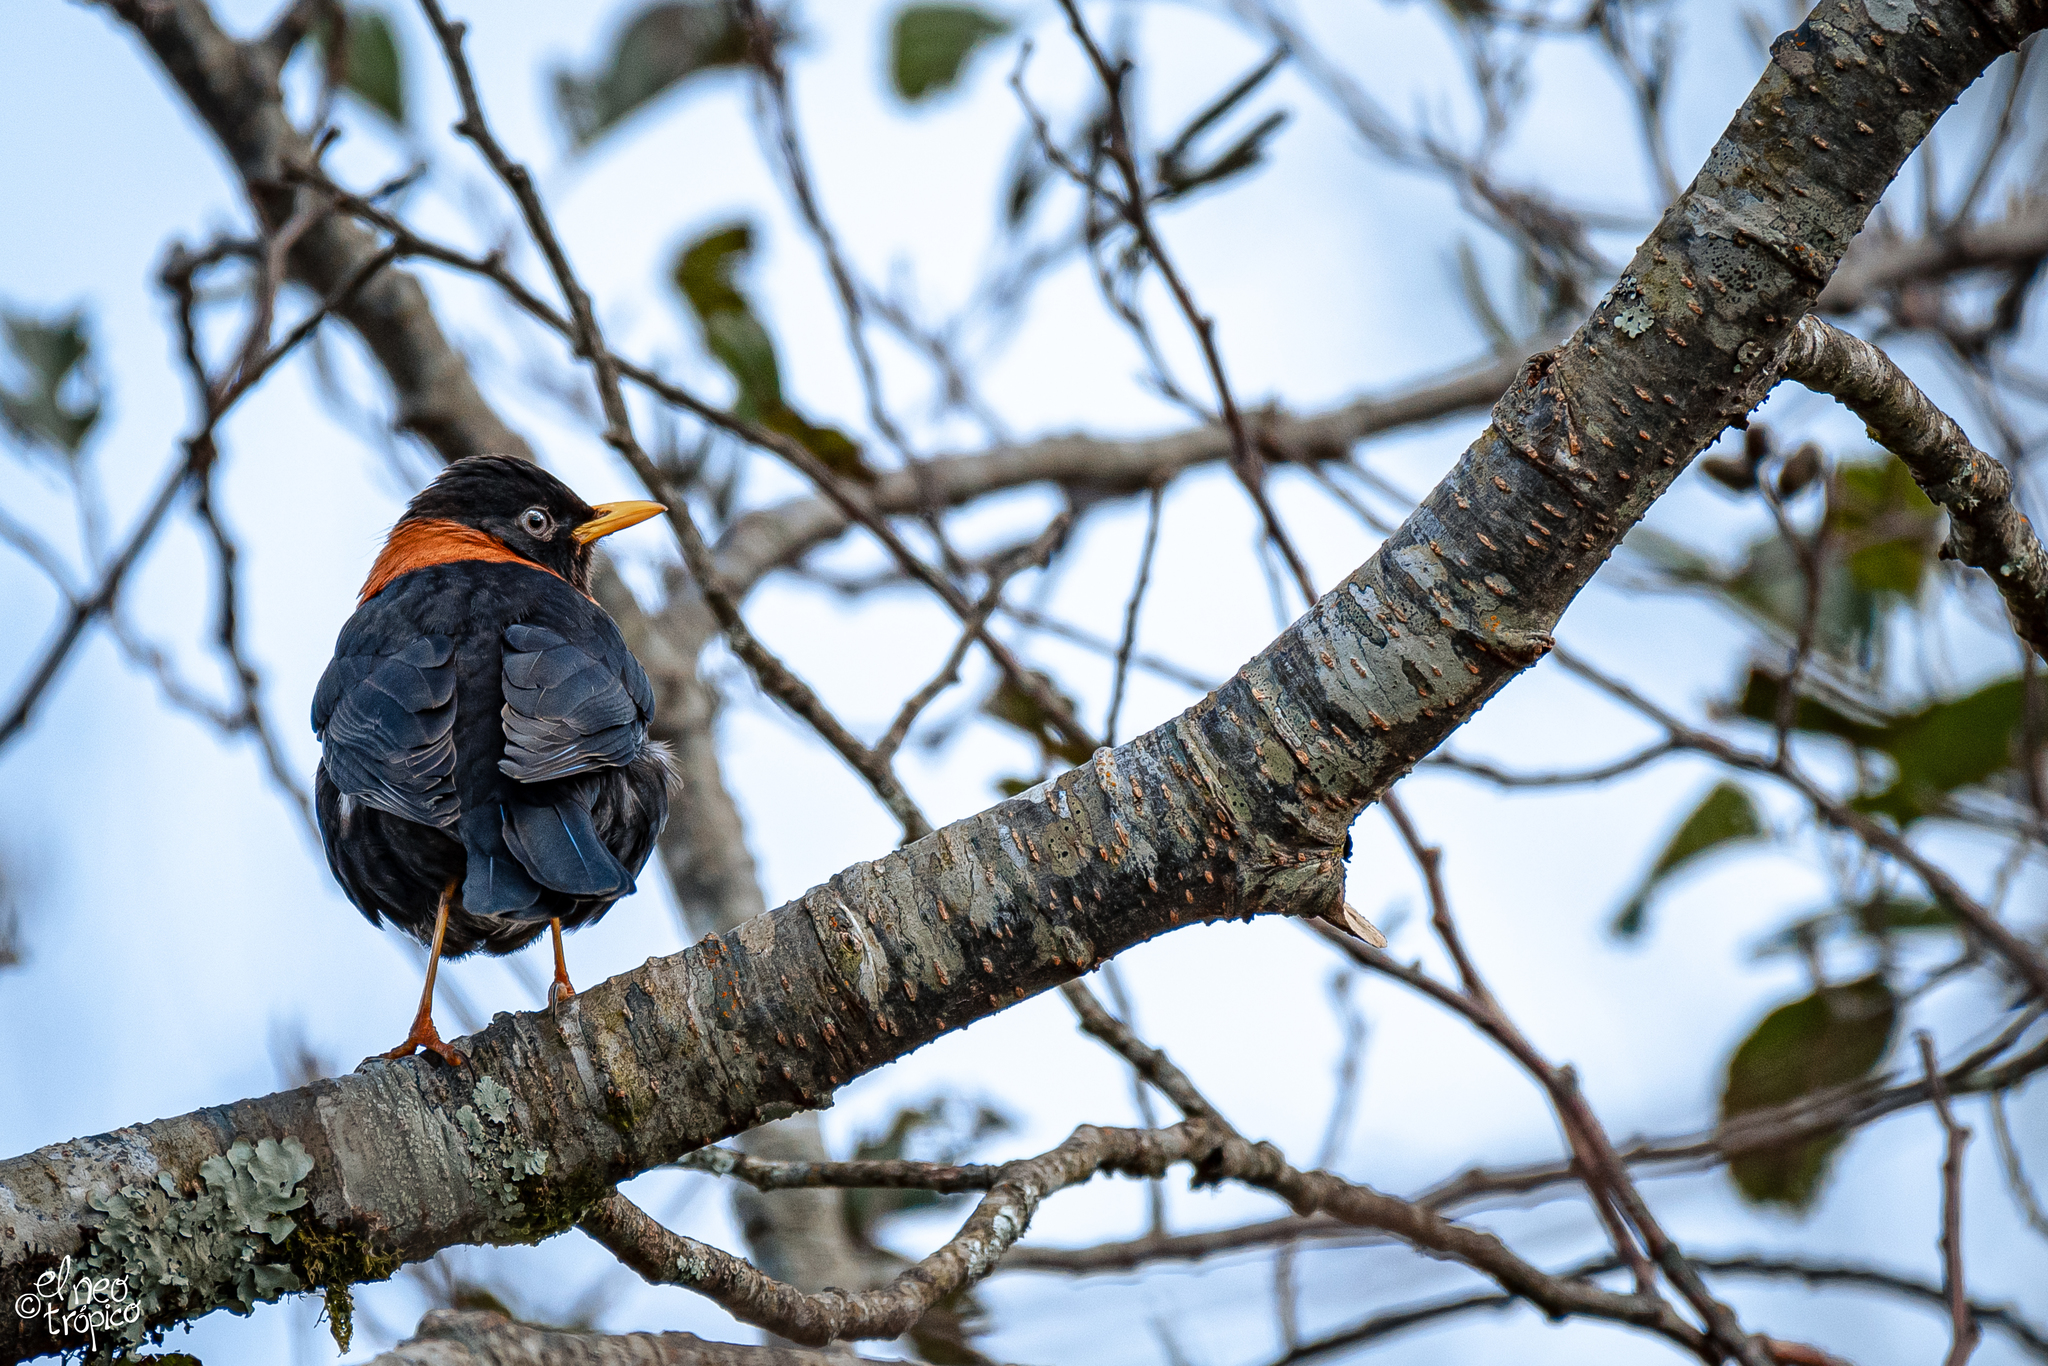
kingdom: Animalia
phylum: Chordata
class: Aves
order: Passeriformes
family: Turdidae
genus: Turdus
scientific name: Turdus rufitorques
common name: Rufous-collared thrush
